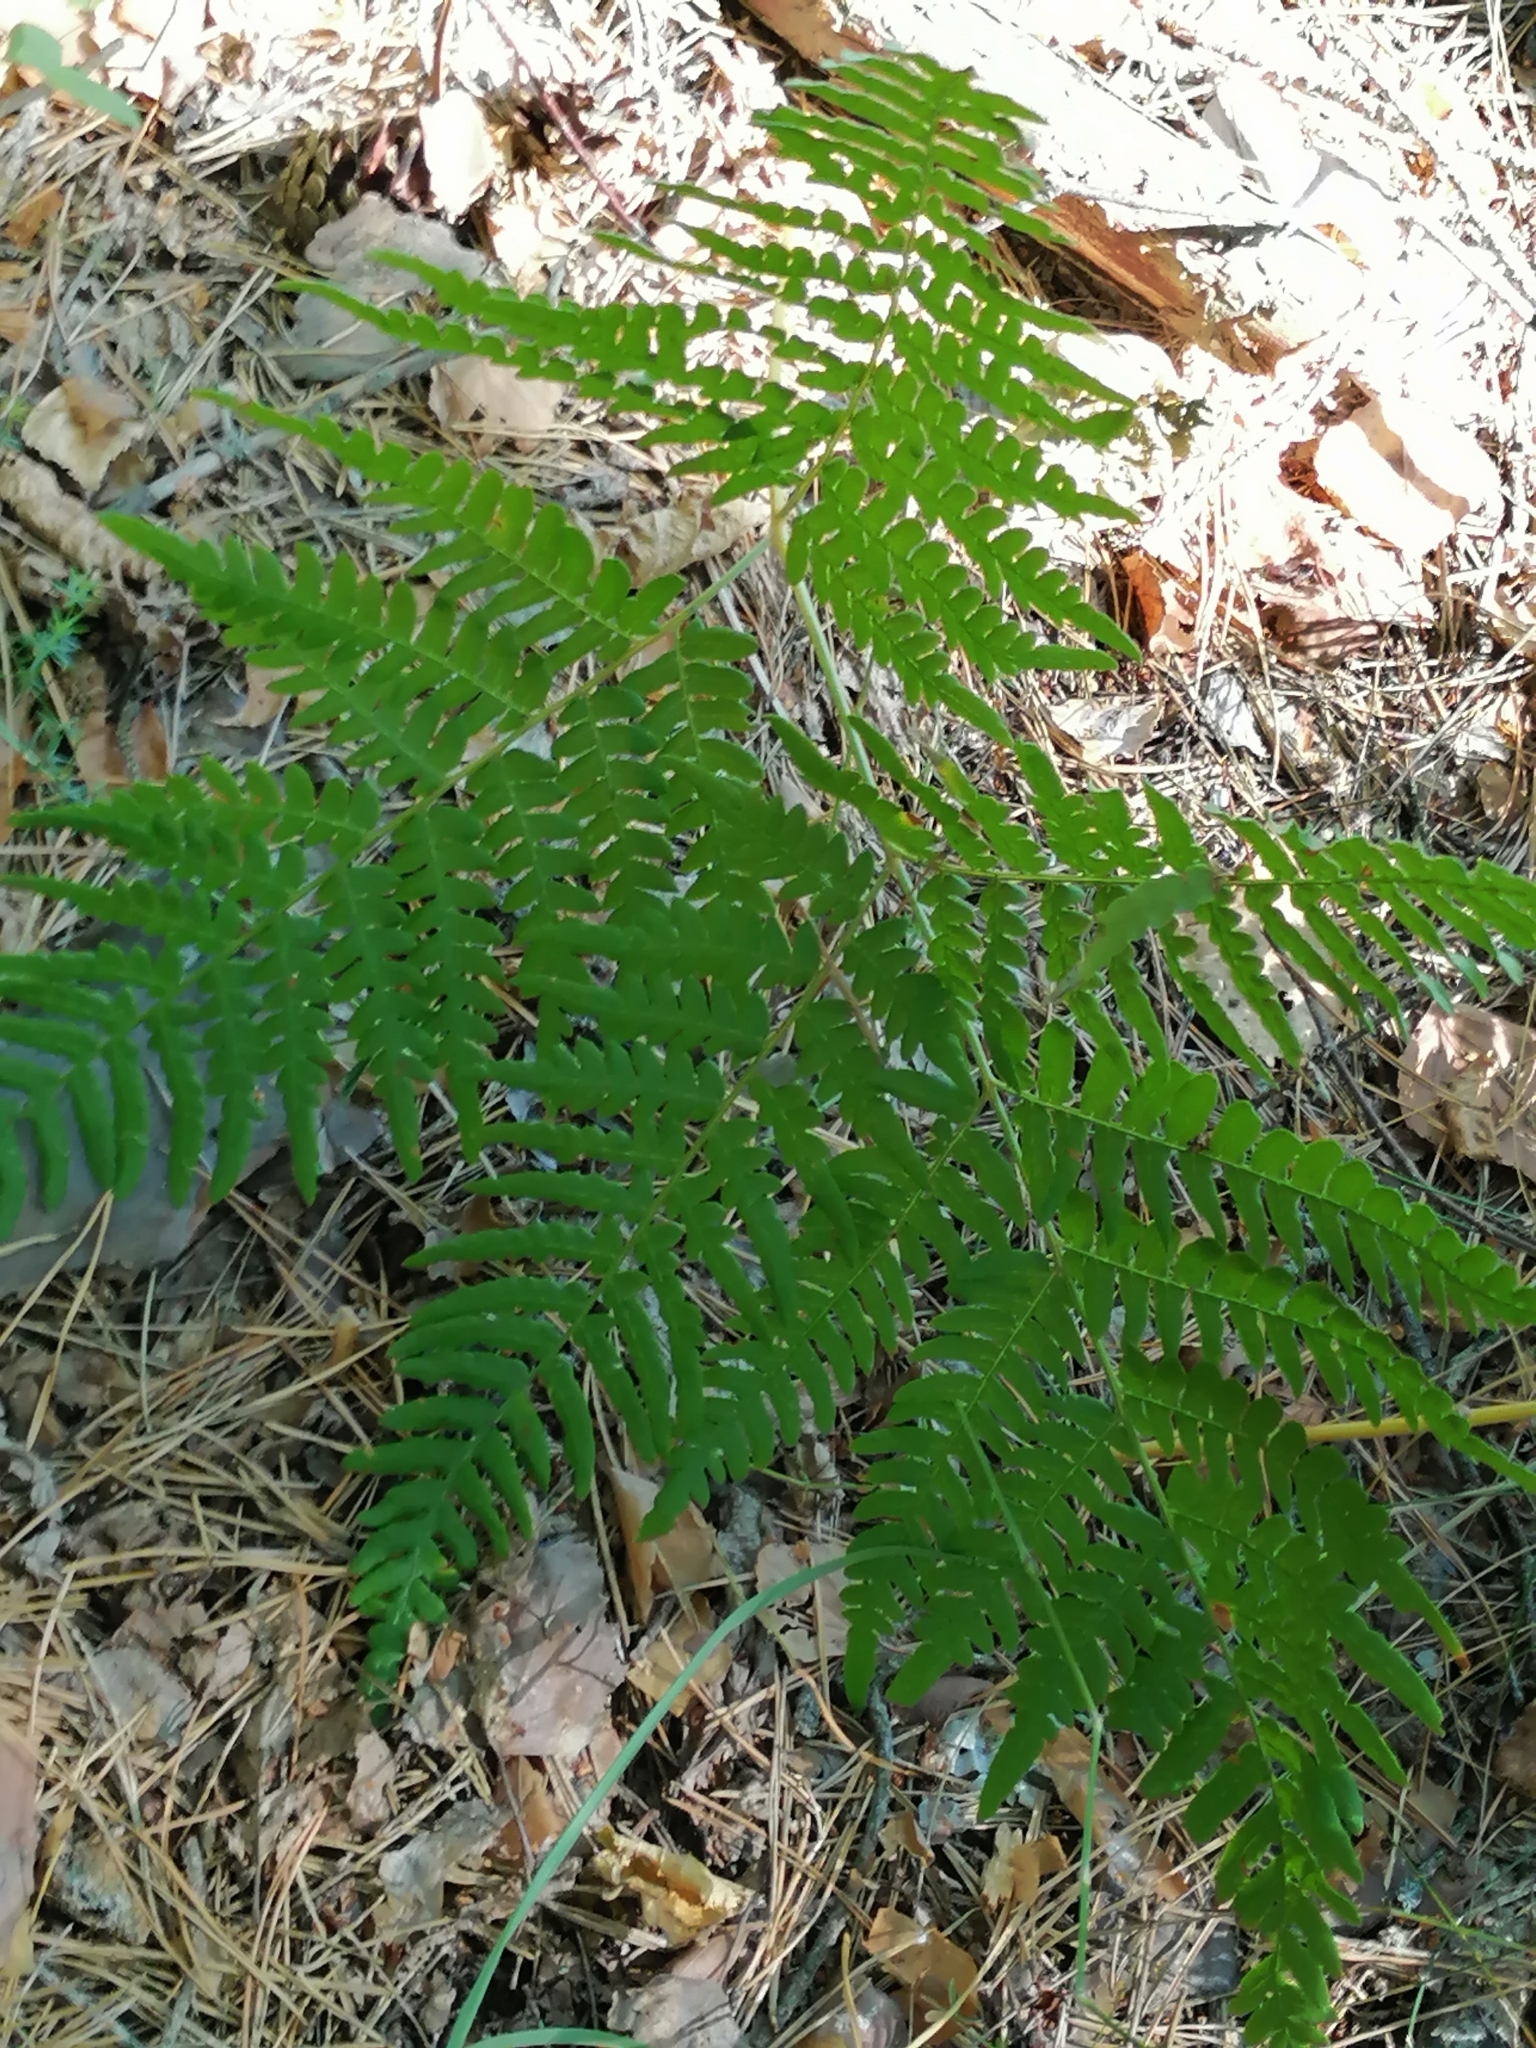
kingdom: Plantae
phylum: Tracheophyta
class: Polypodiopsida
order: Polypodiales
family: Dennstaedtiaceae
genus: Pteridium
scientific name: Pteridium aquilinum
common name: Bracken
